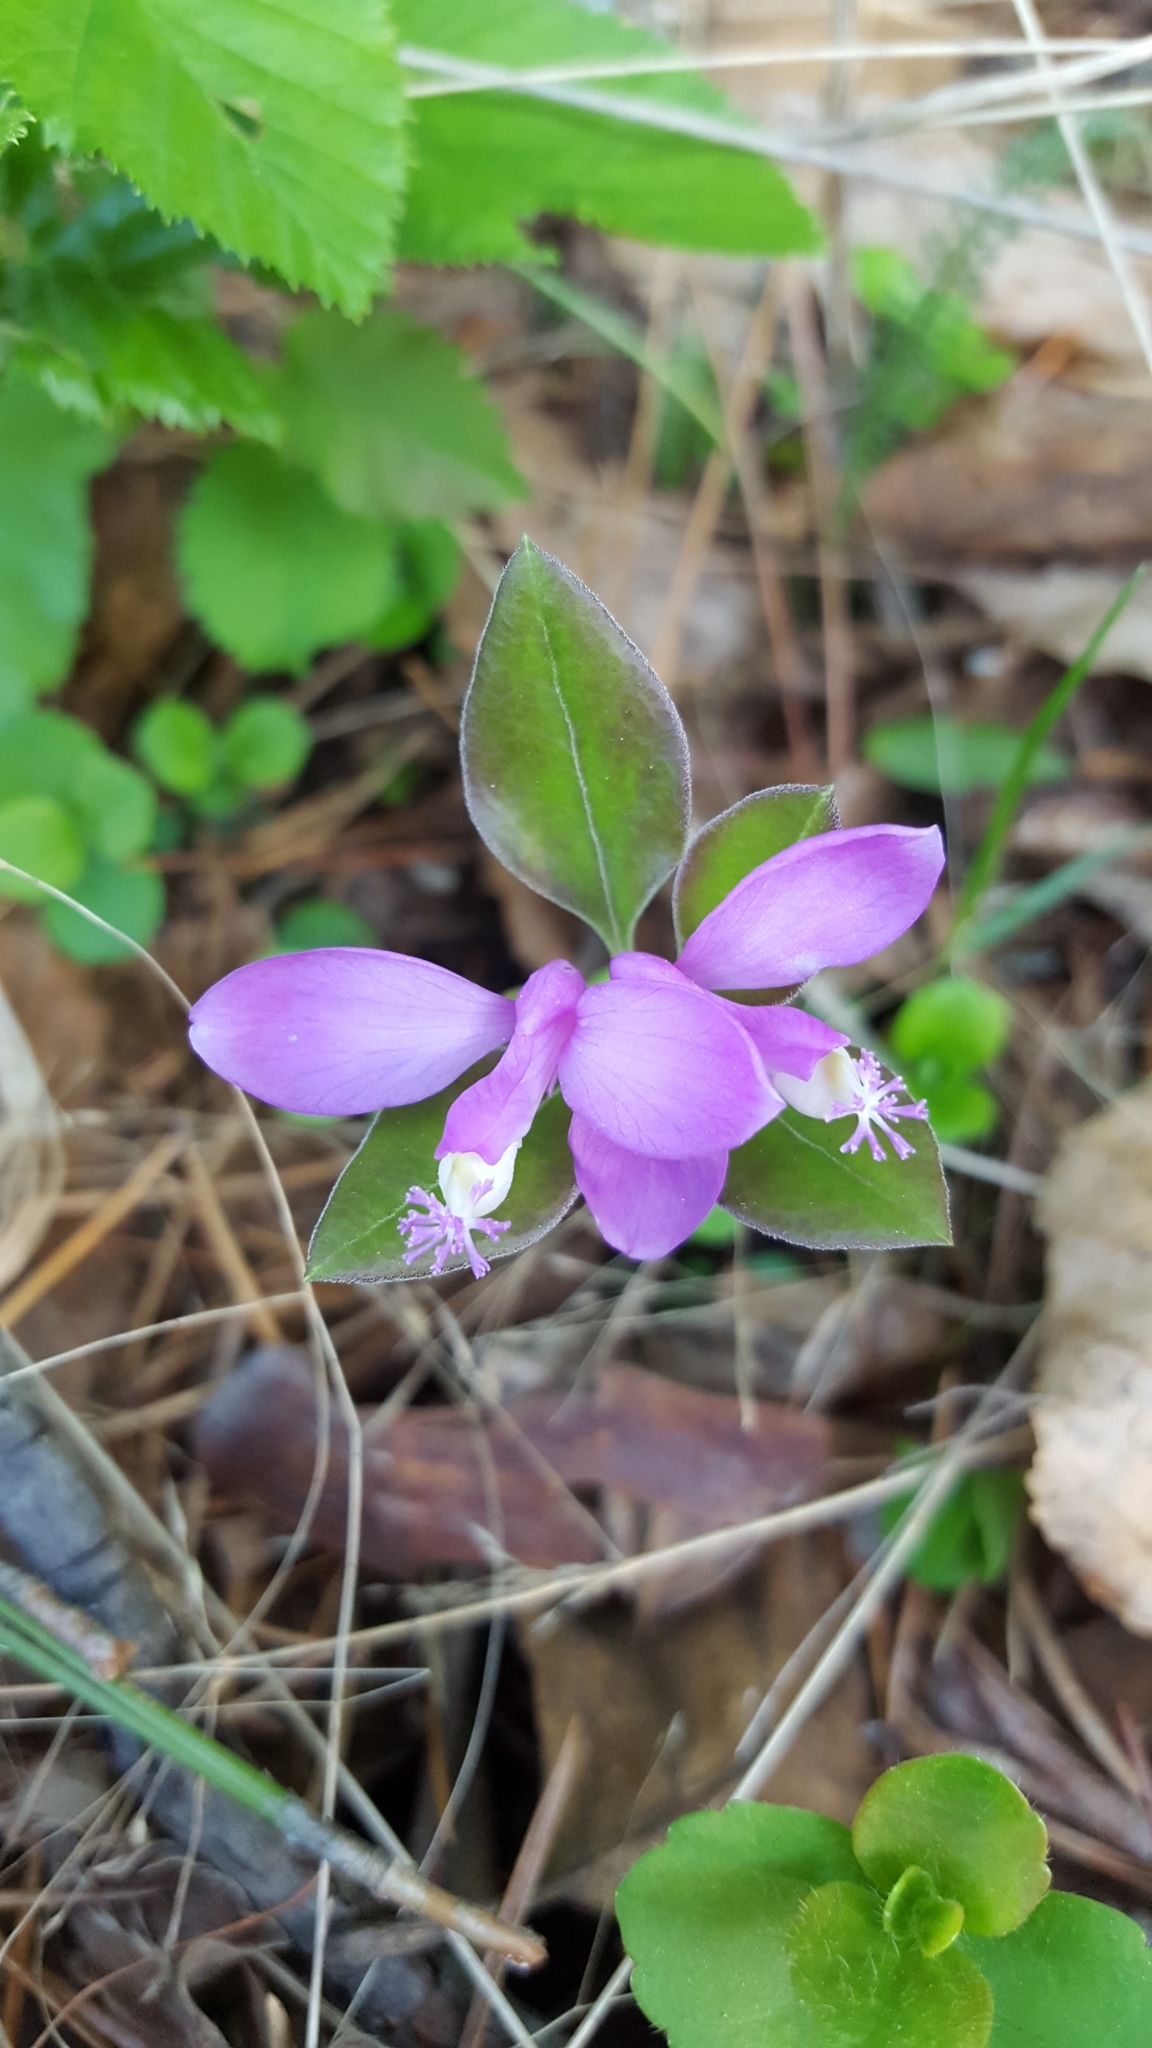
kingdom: Plantae
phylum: Tracheophyta
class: Magnoliopsida
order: Fabales
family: Polygalaceae
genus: Polygaloides
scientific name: Polygaloides paucifolia
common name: Bird-on-the-wing
